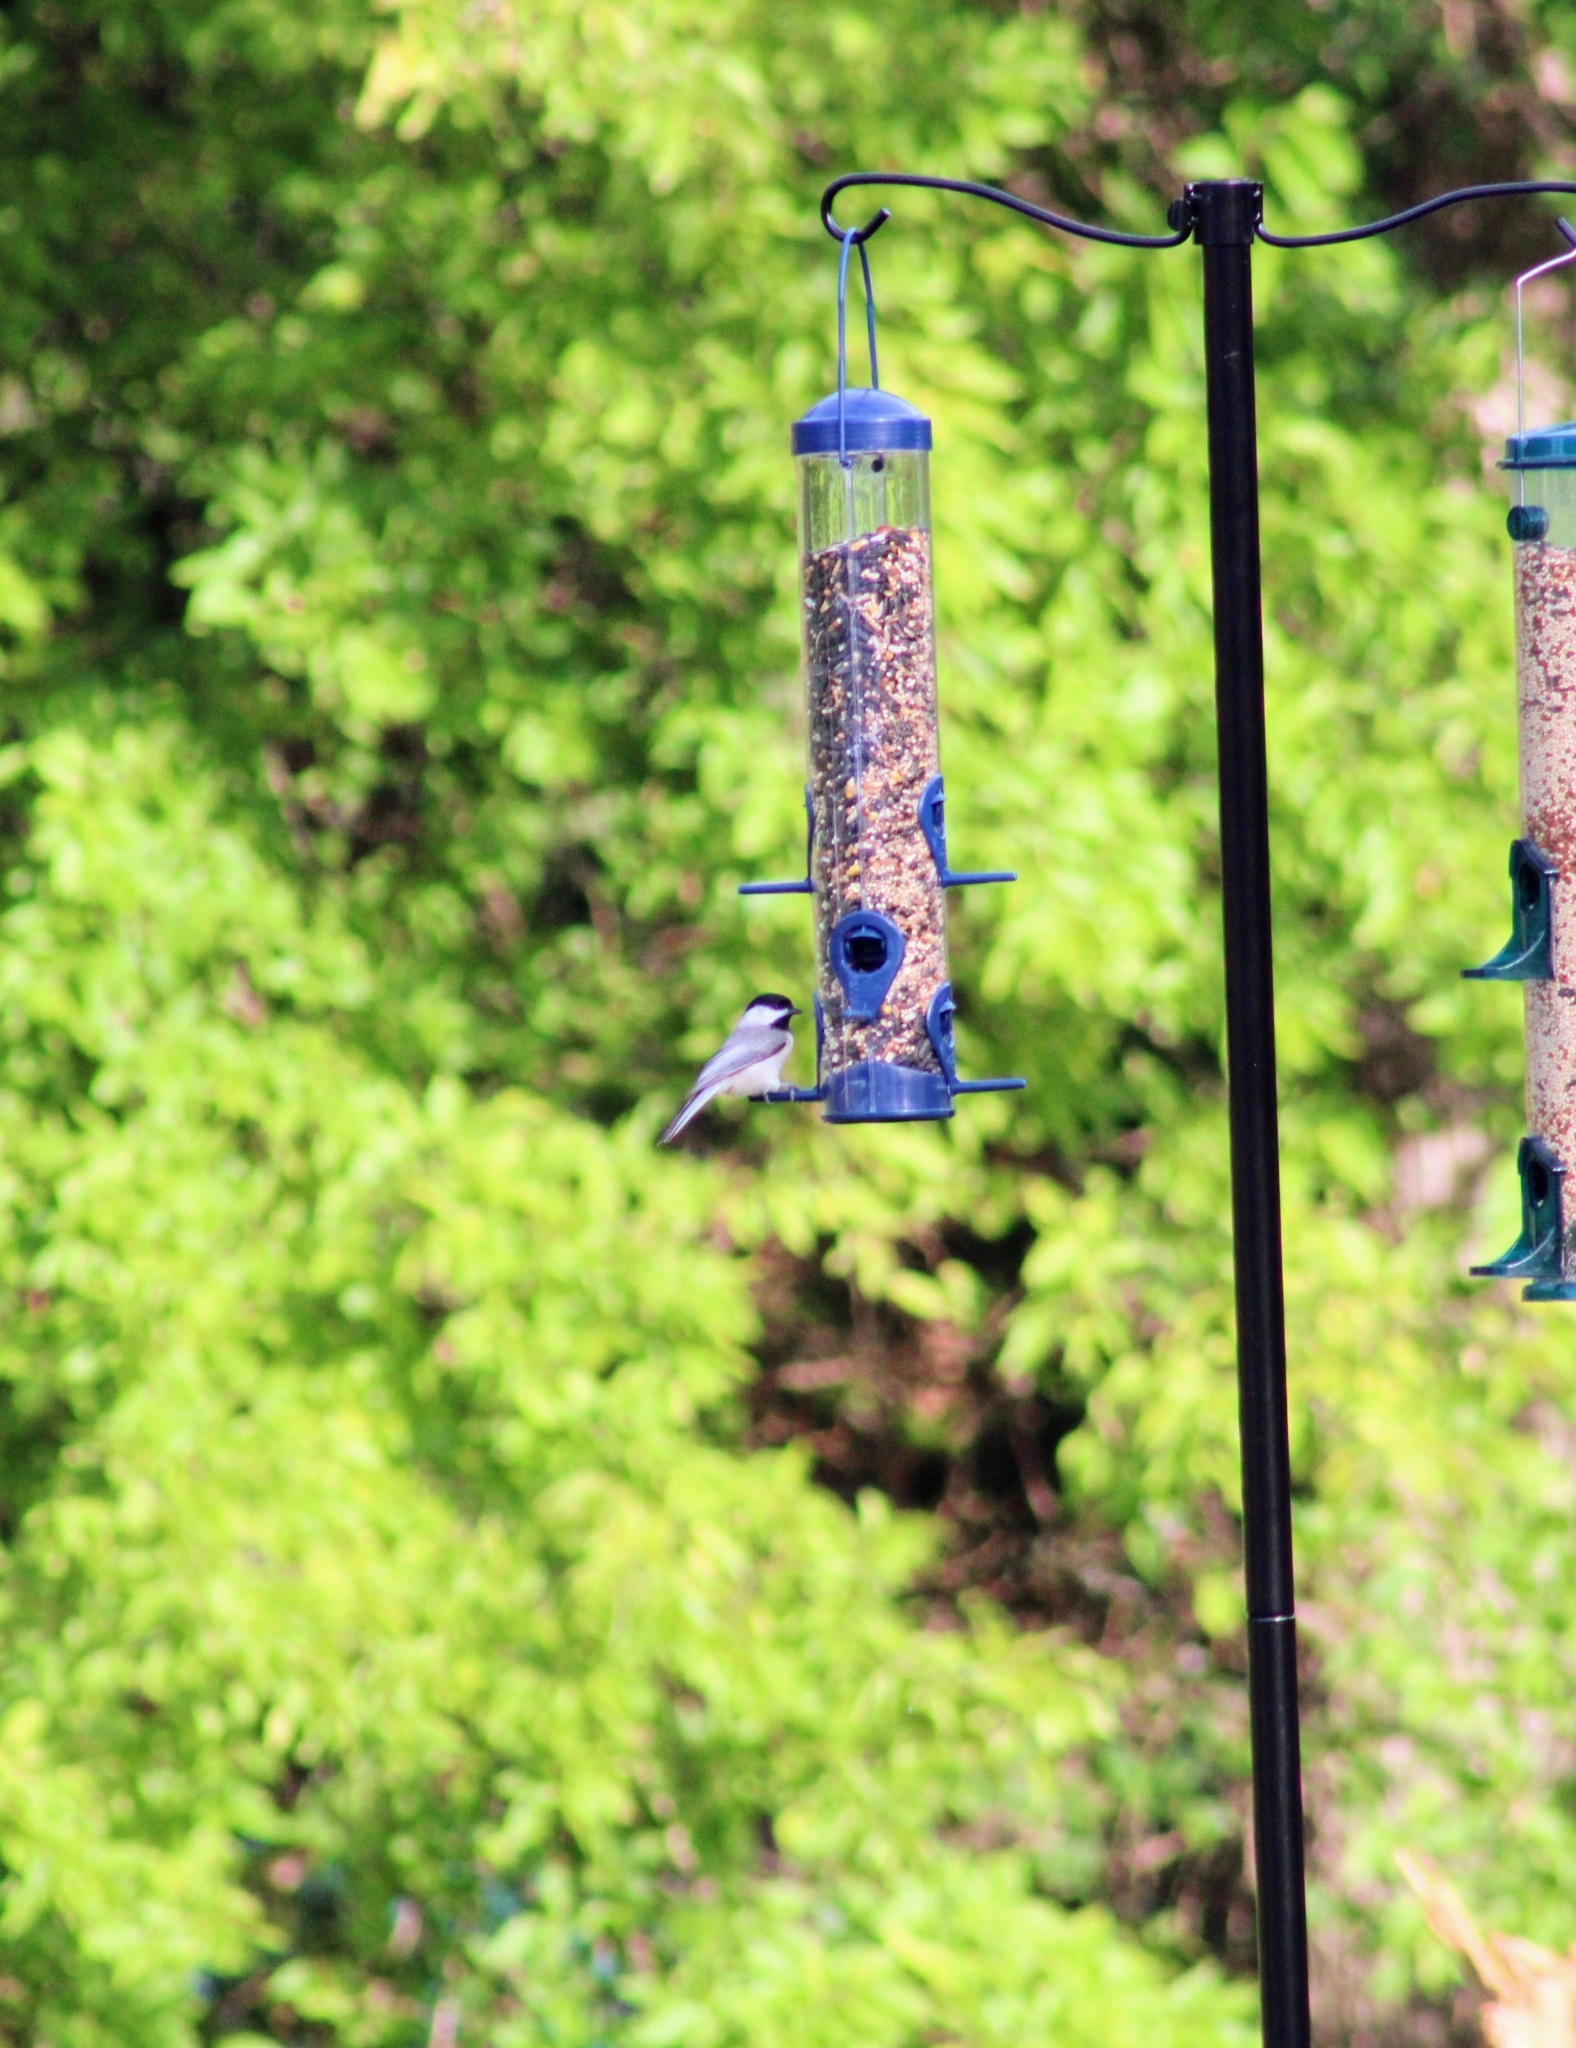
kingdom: Animalia
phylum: Chordata
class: Aves
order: Passeriformes
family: Paridae
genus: Poecile
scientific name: Poecile carolinensis
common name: Carolina chickadee
